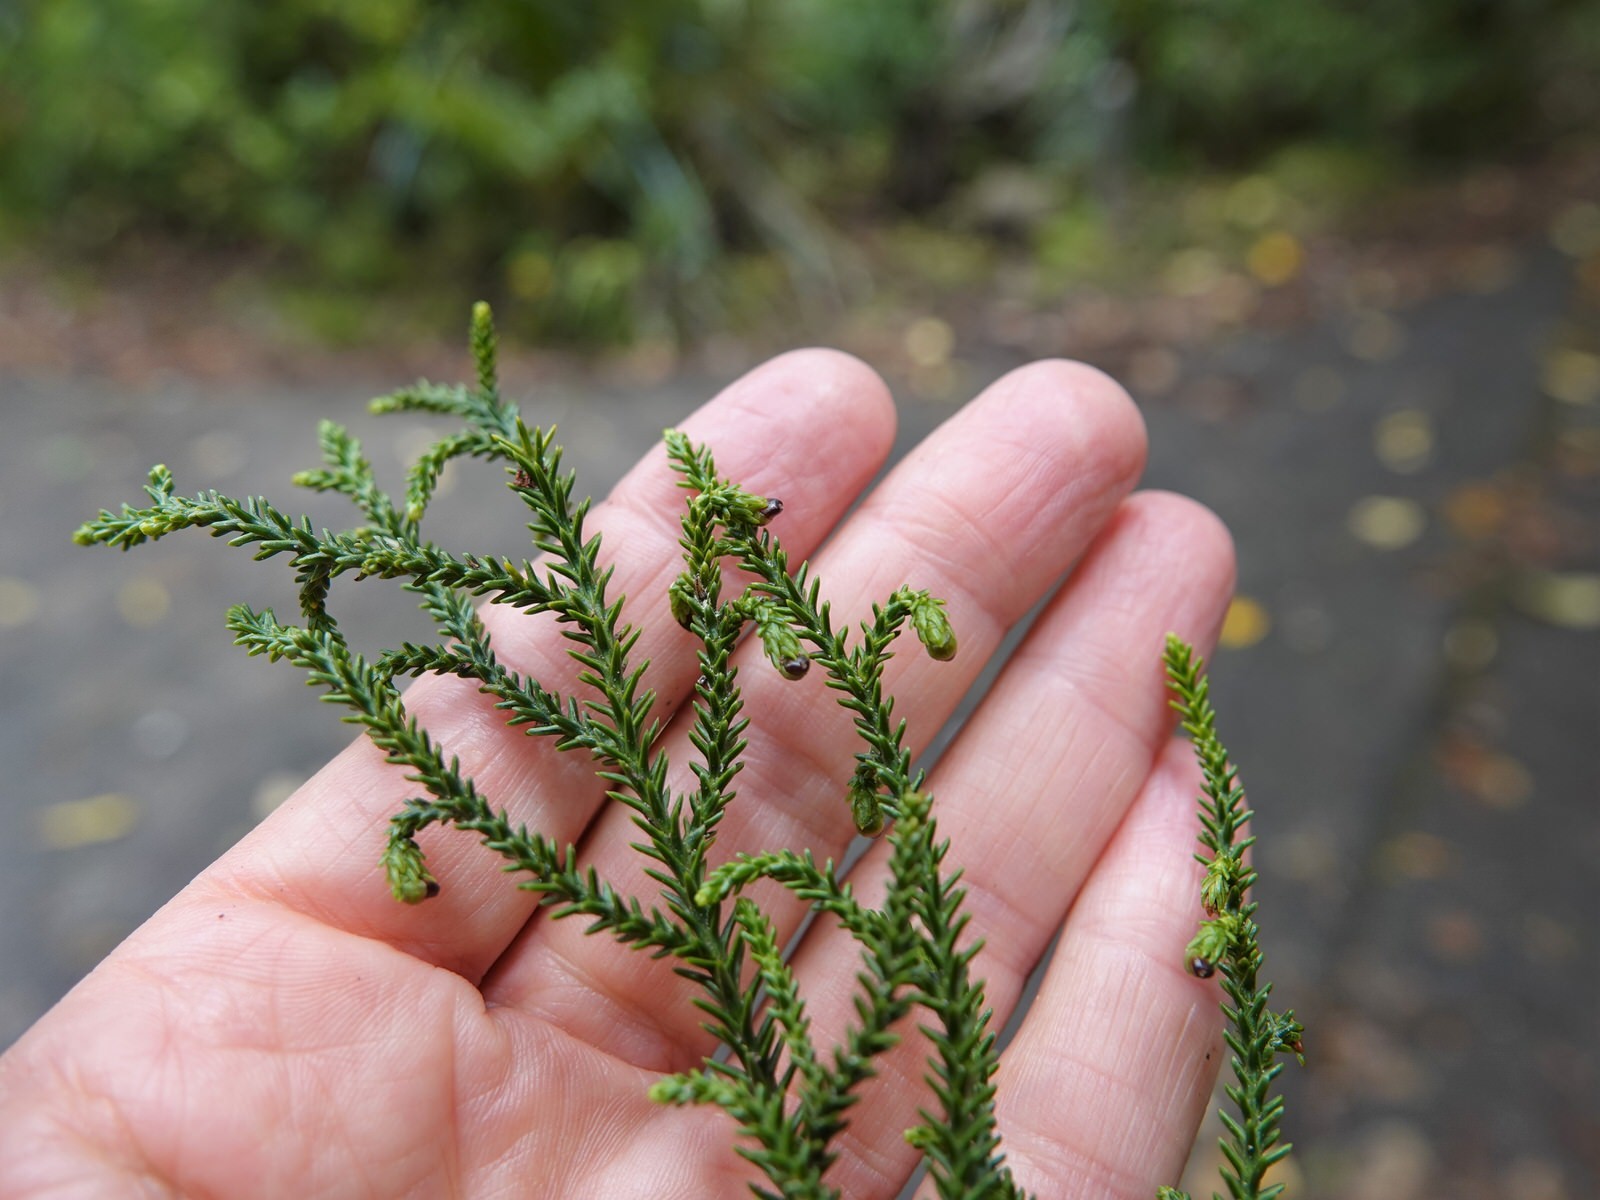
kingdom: Plantae
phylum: Tracheophyta
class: Pinopsida
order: Pinales
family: Podocarpaceae
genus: Dacrydium
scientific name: Dacrydium cupressinum
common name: Red pine
